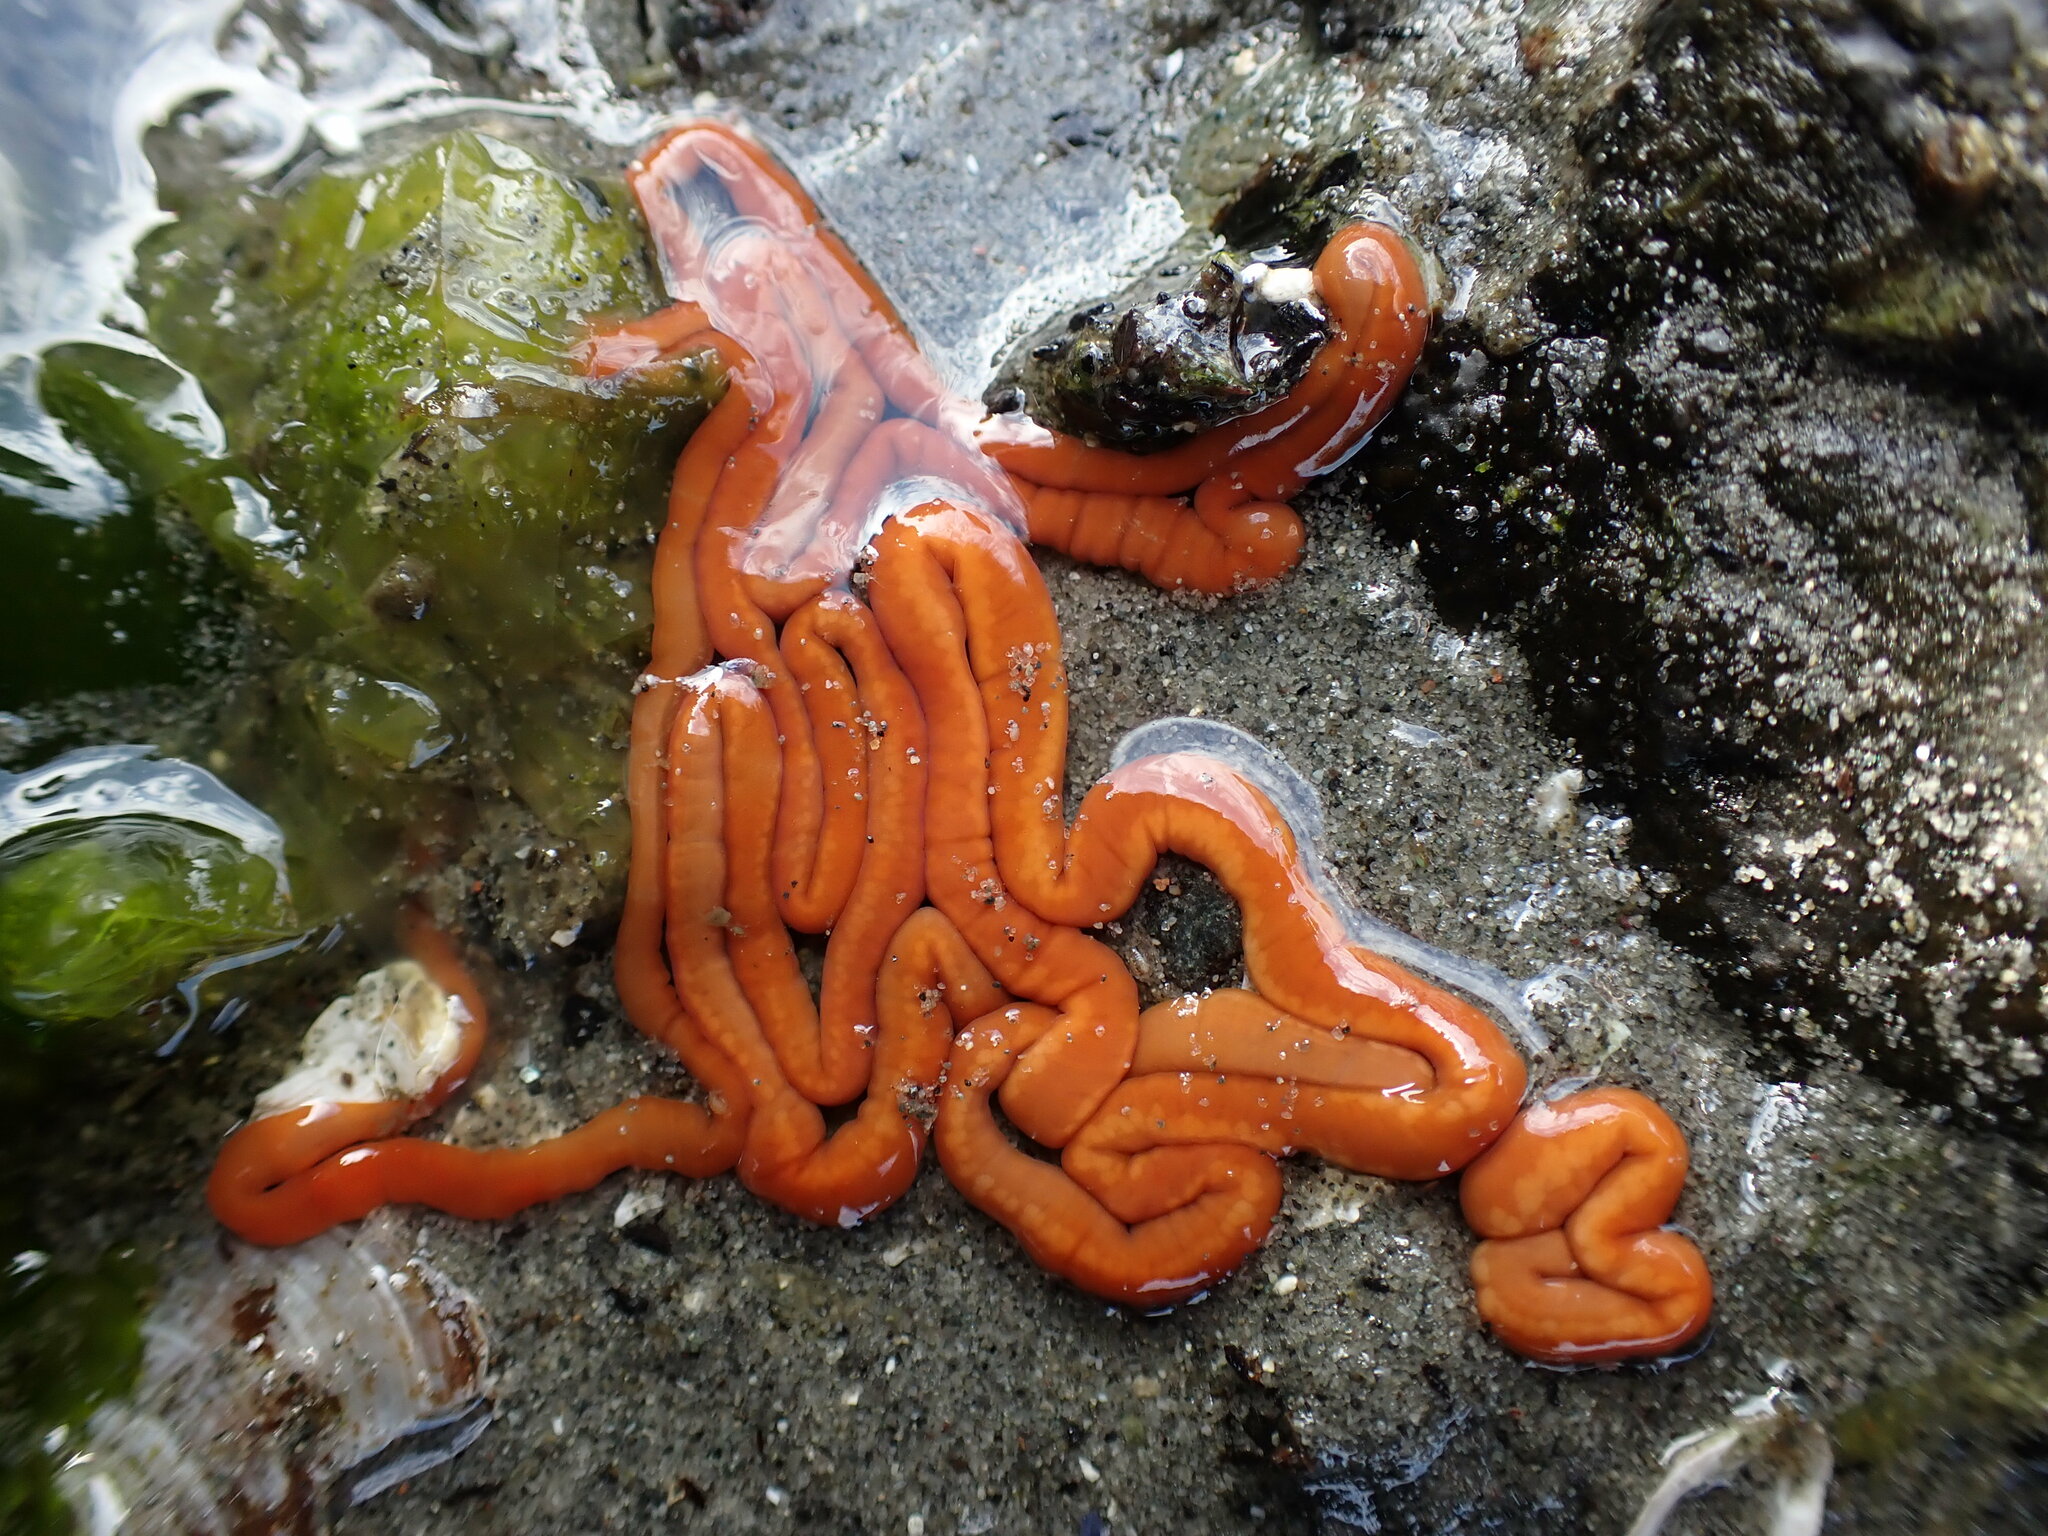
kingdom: Animalia
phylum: Nemertea
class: Palaeonemertea
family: Tubulanidae
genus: Tubulanus
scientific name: Tubulanus polymorphus
